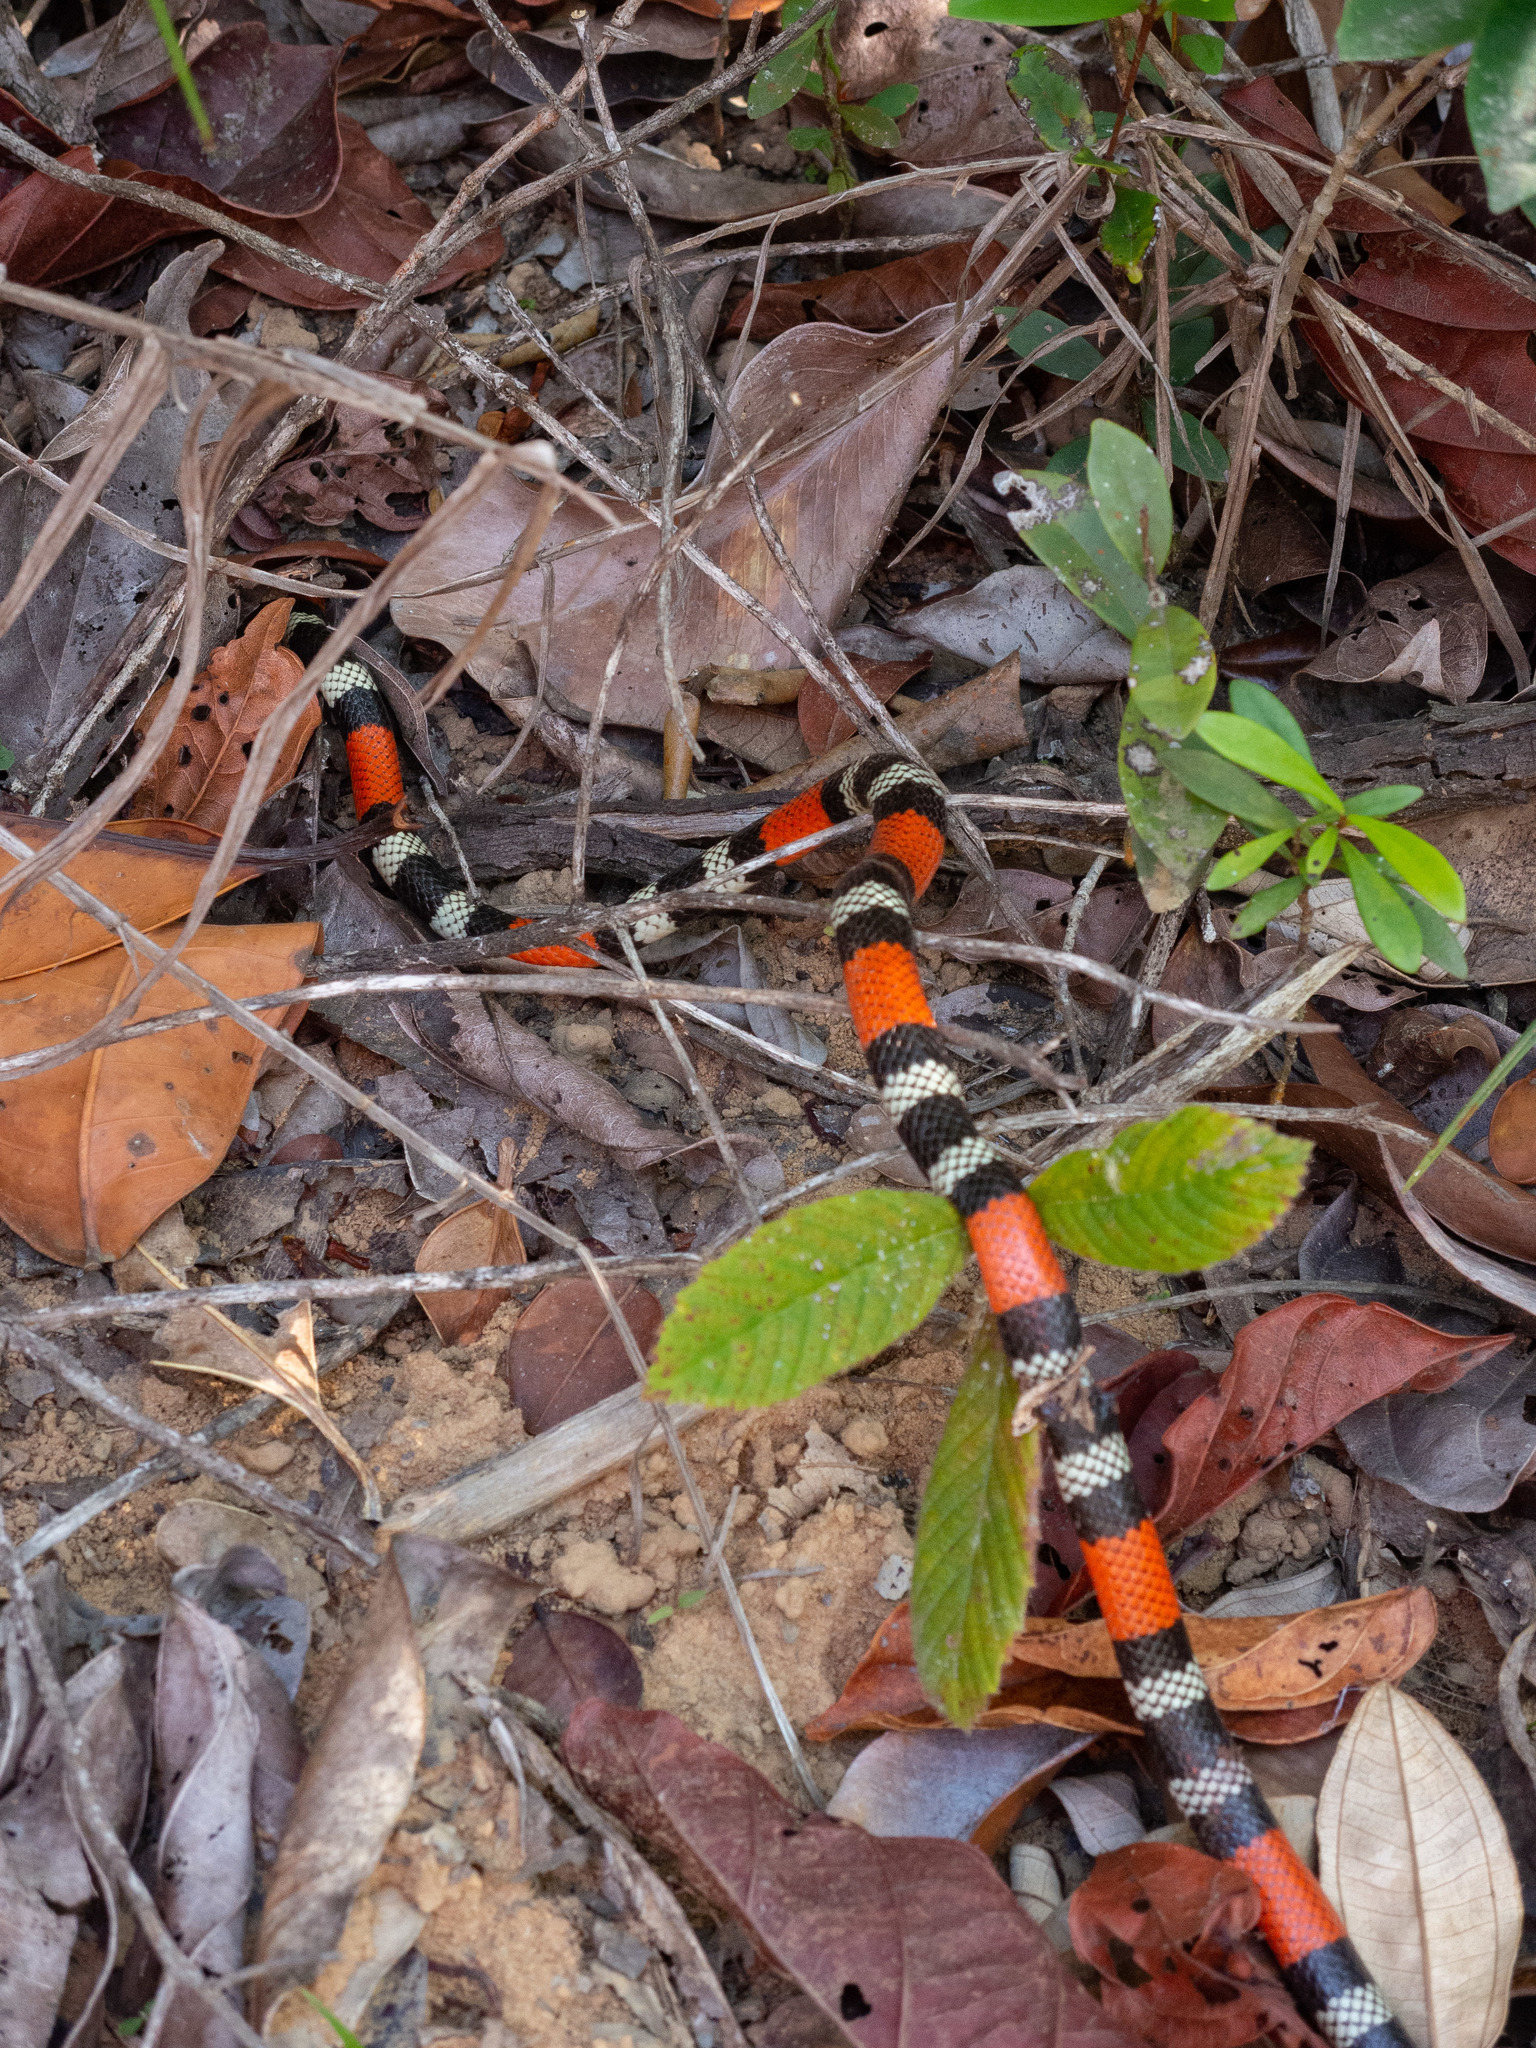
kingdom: Animalia
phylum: Chordata
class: Squamata
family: Elapidae
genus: Micrurus
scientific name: Micrurus ibiboboca
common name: Caatinga coral snake
